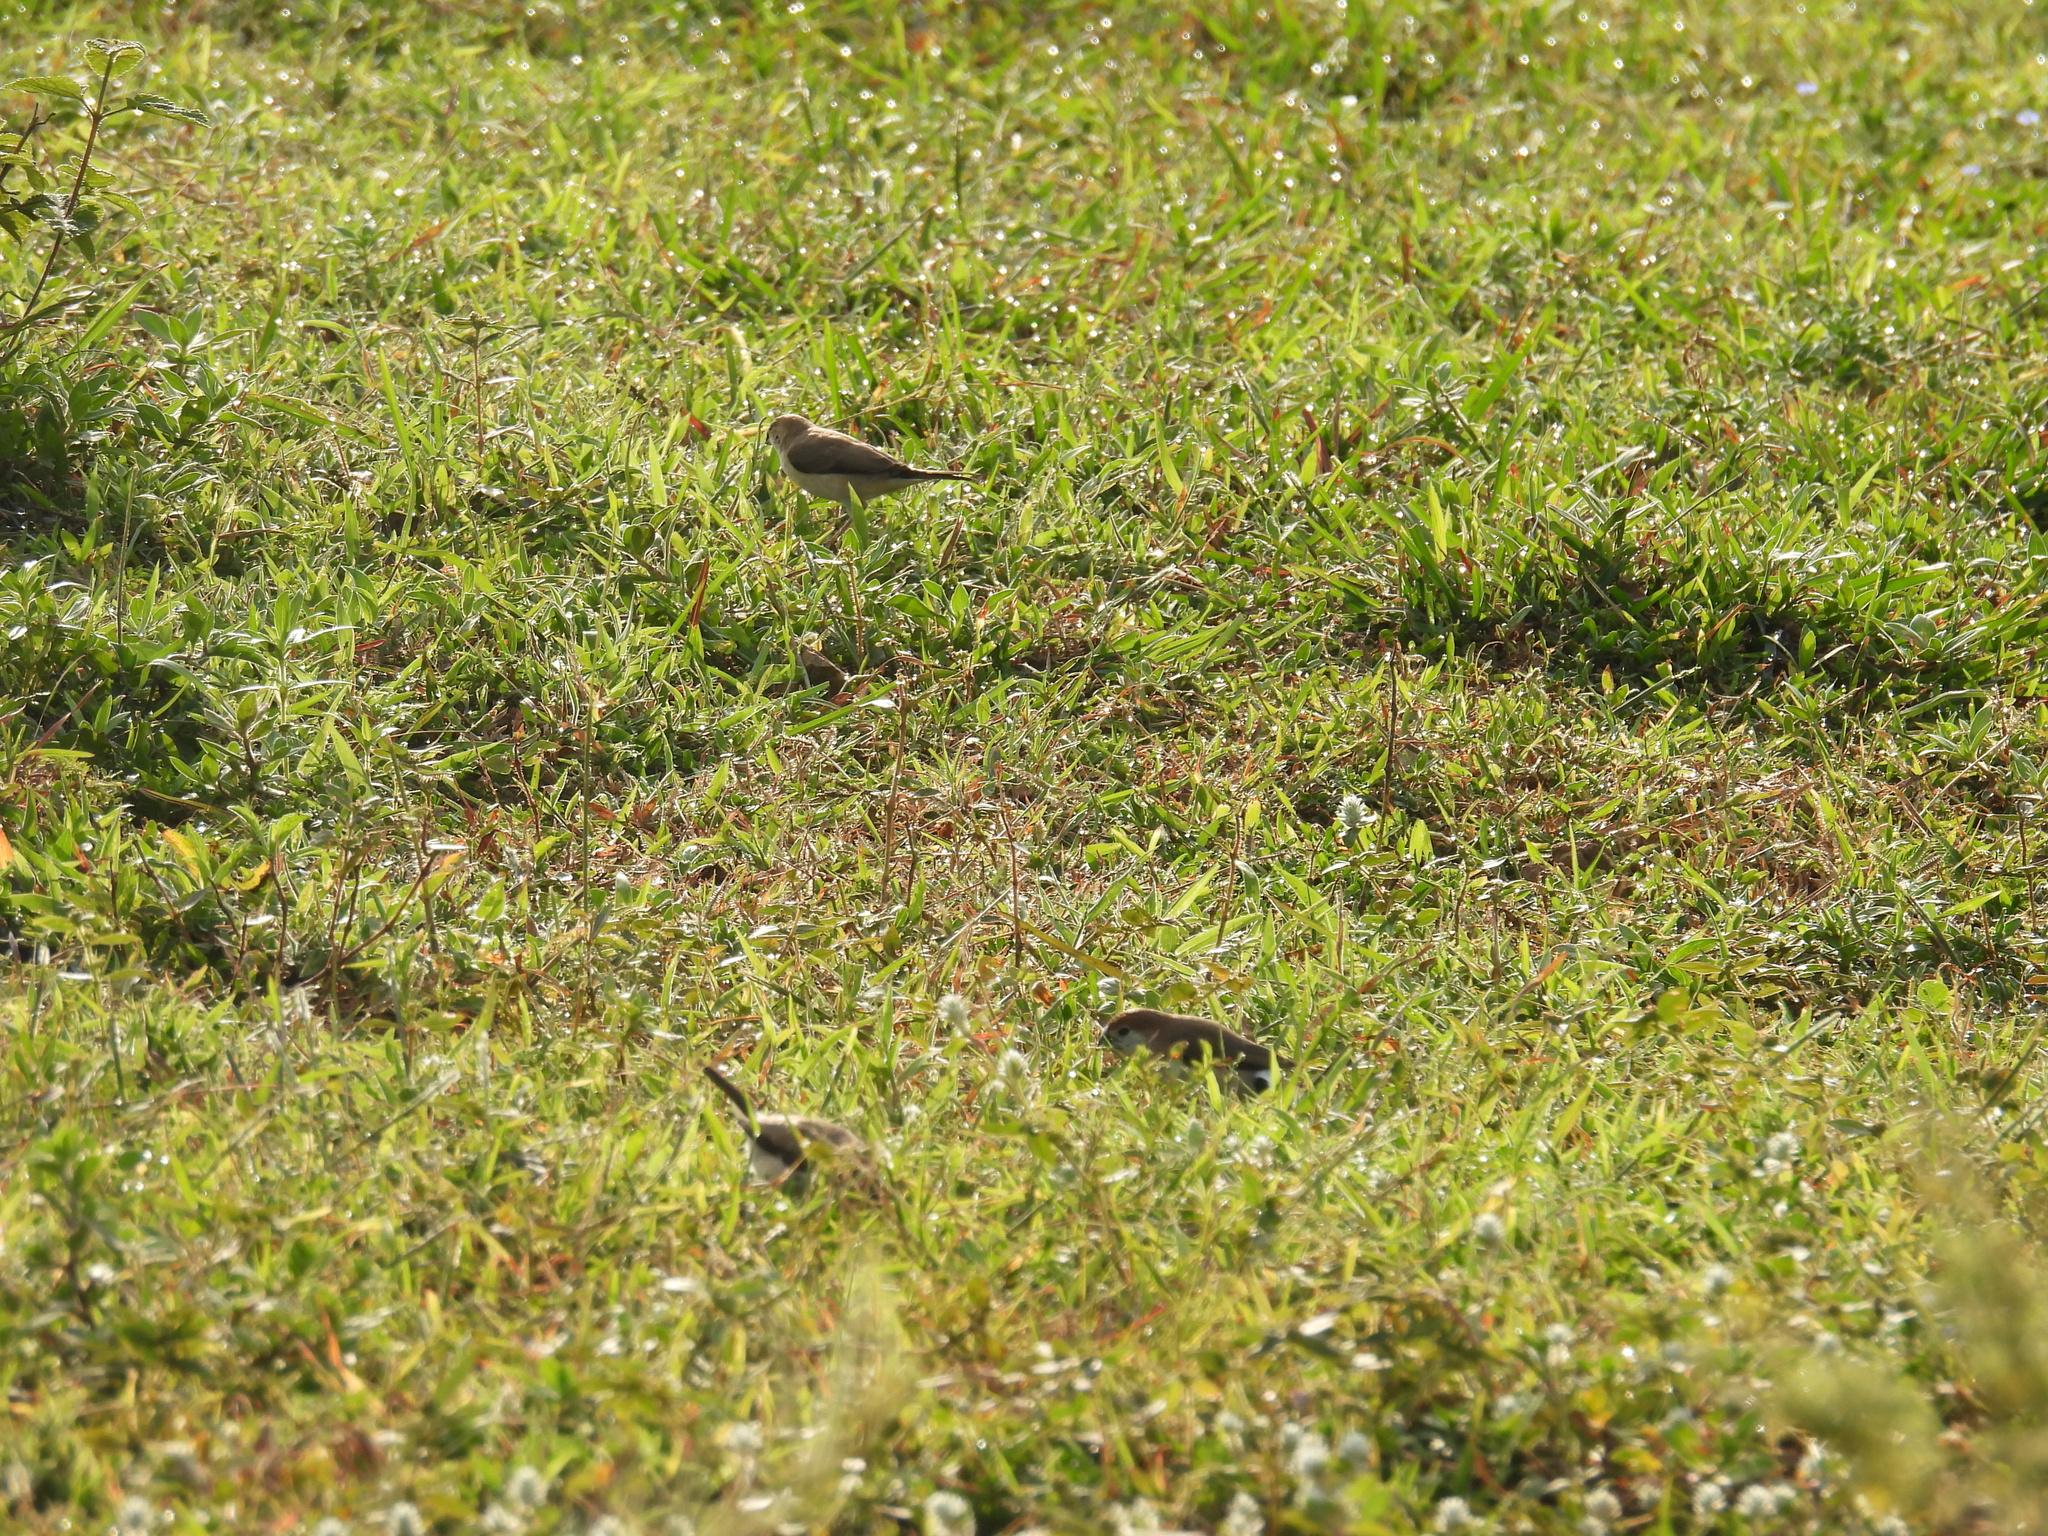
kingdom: Animalia
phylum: Chordata
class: Aves
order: Passeriformes
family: Estrildidae
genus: Euodice
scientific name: Euodice malabarica
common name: Indian silverbill
